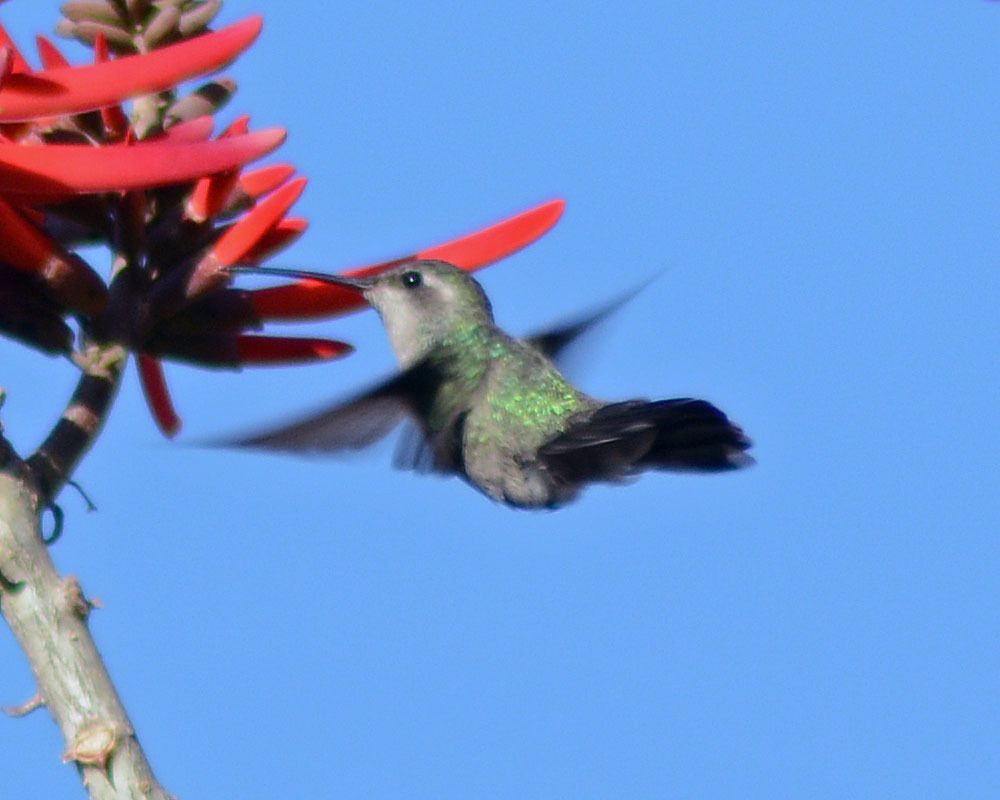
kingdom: Animalia
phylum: Chordata
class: Aves
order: Apodiformes
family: Trochilidae
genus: Cynanthus
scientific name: Cynanthus latirostris
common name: Broad-billed hummingbird
